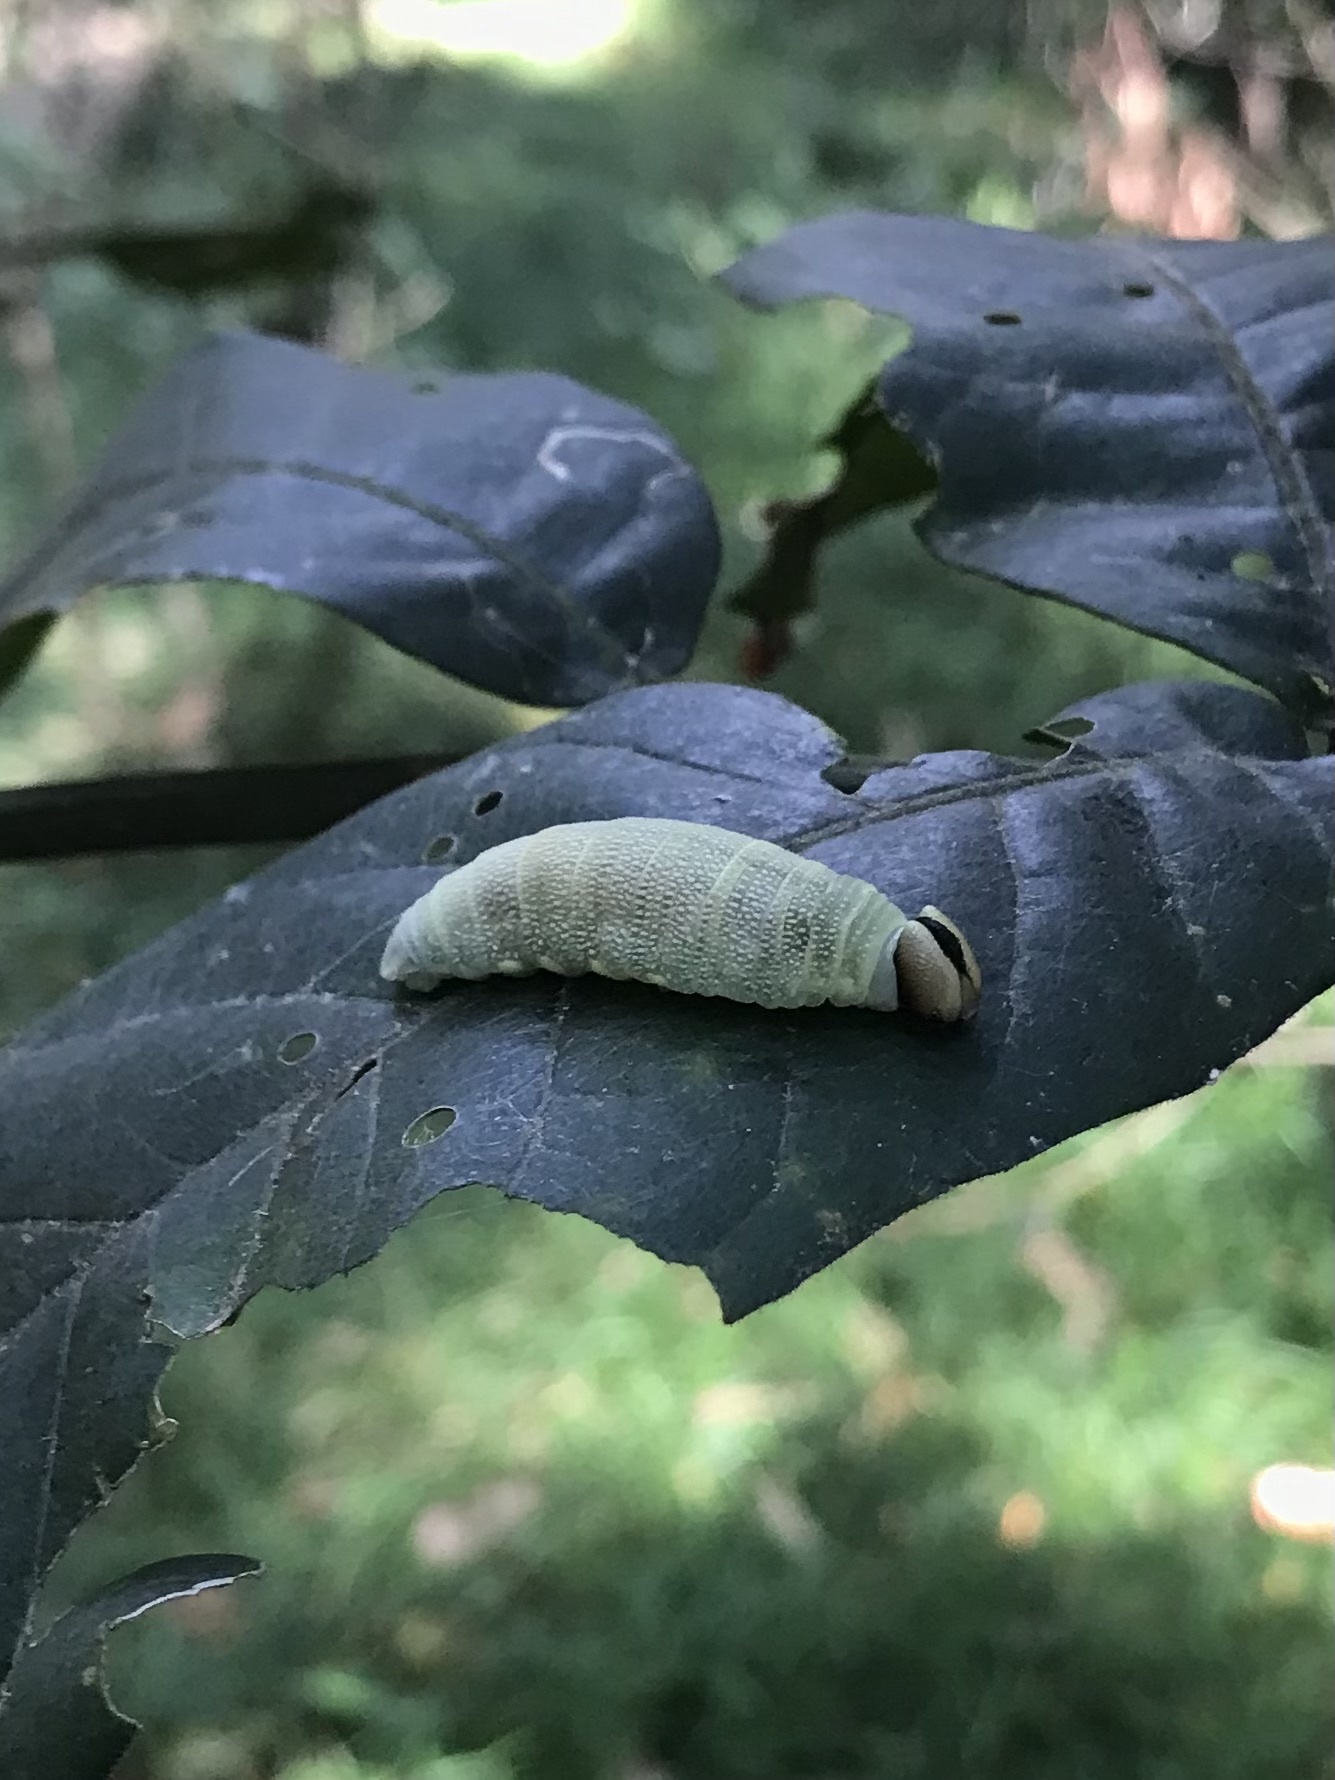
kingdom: Animalia
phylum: Arthropoda
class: Insecta
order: Lepidoptera
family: Hesperiidae
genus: Chaetocneme
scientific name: Chaetocneme beata
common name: Eastern dusk-flat
